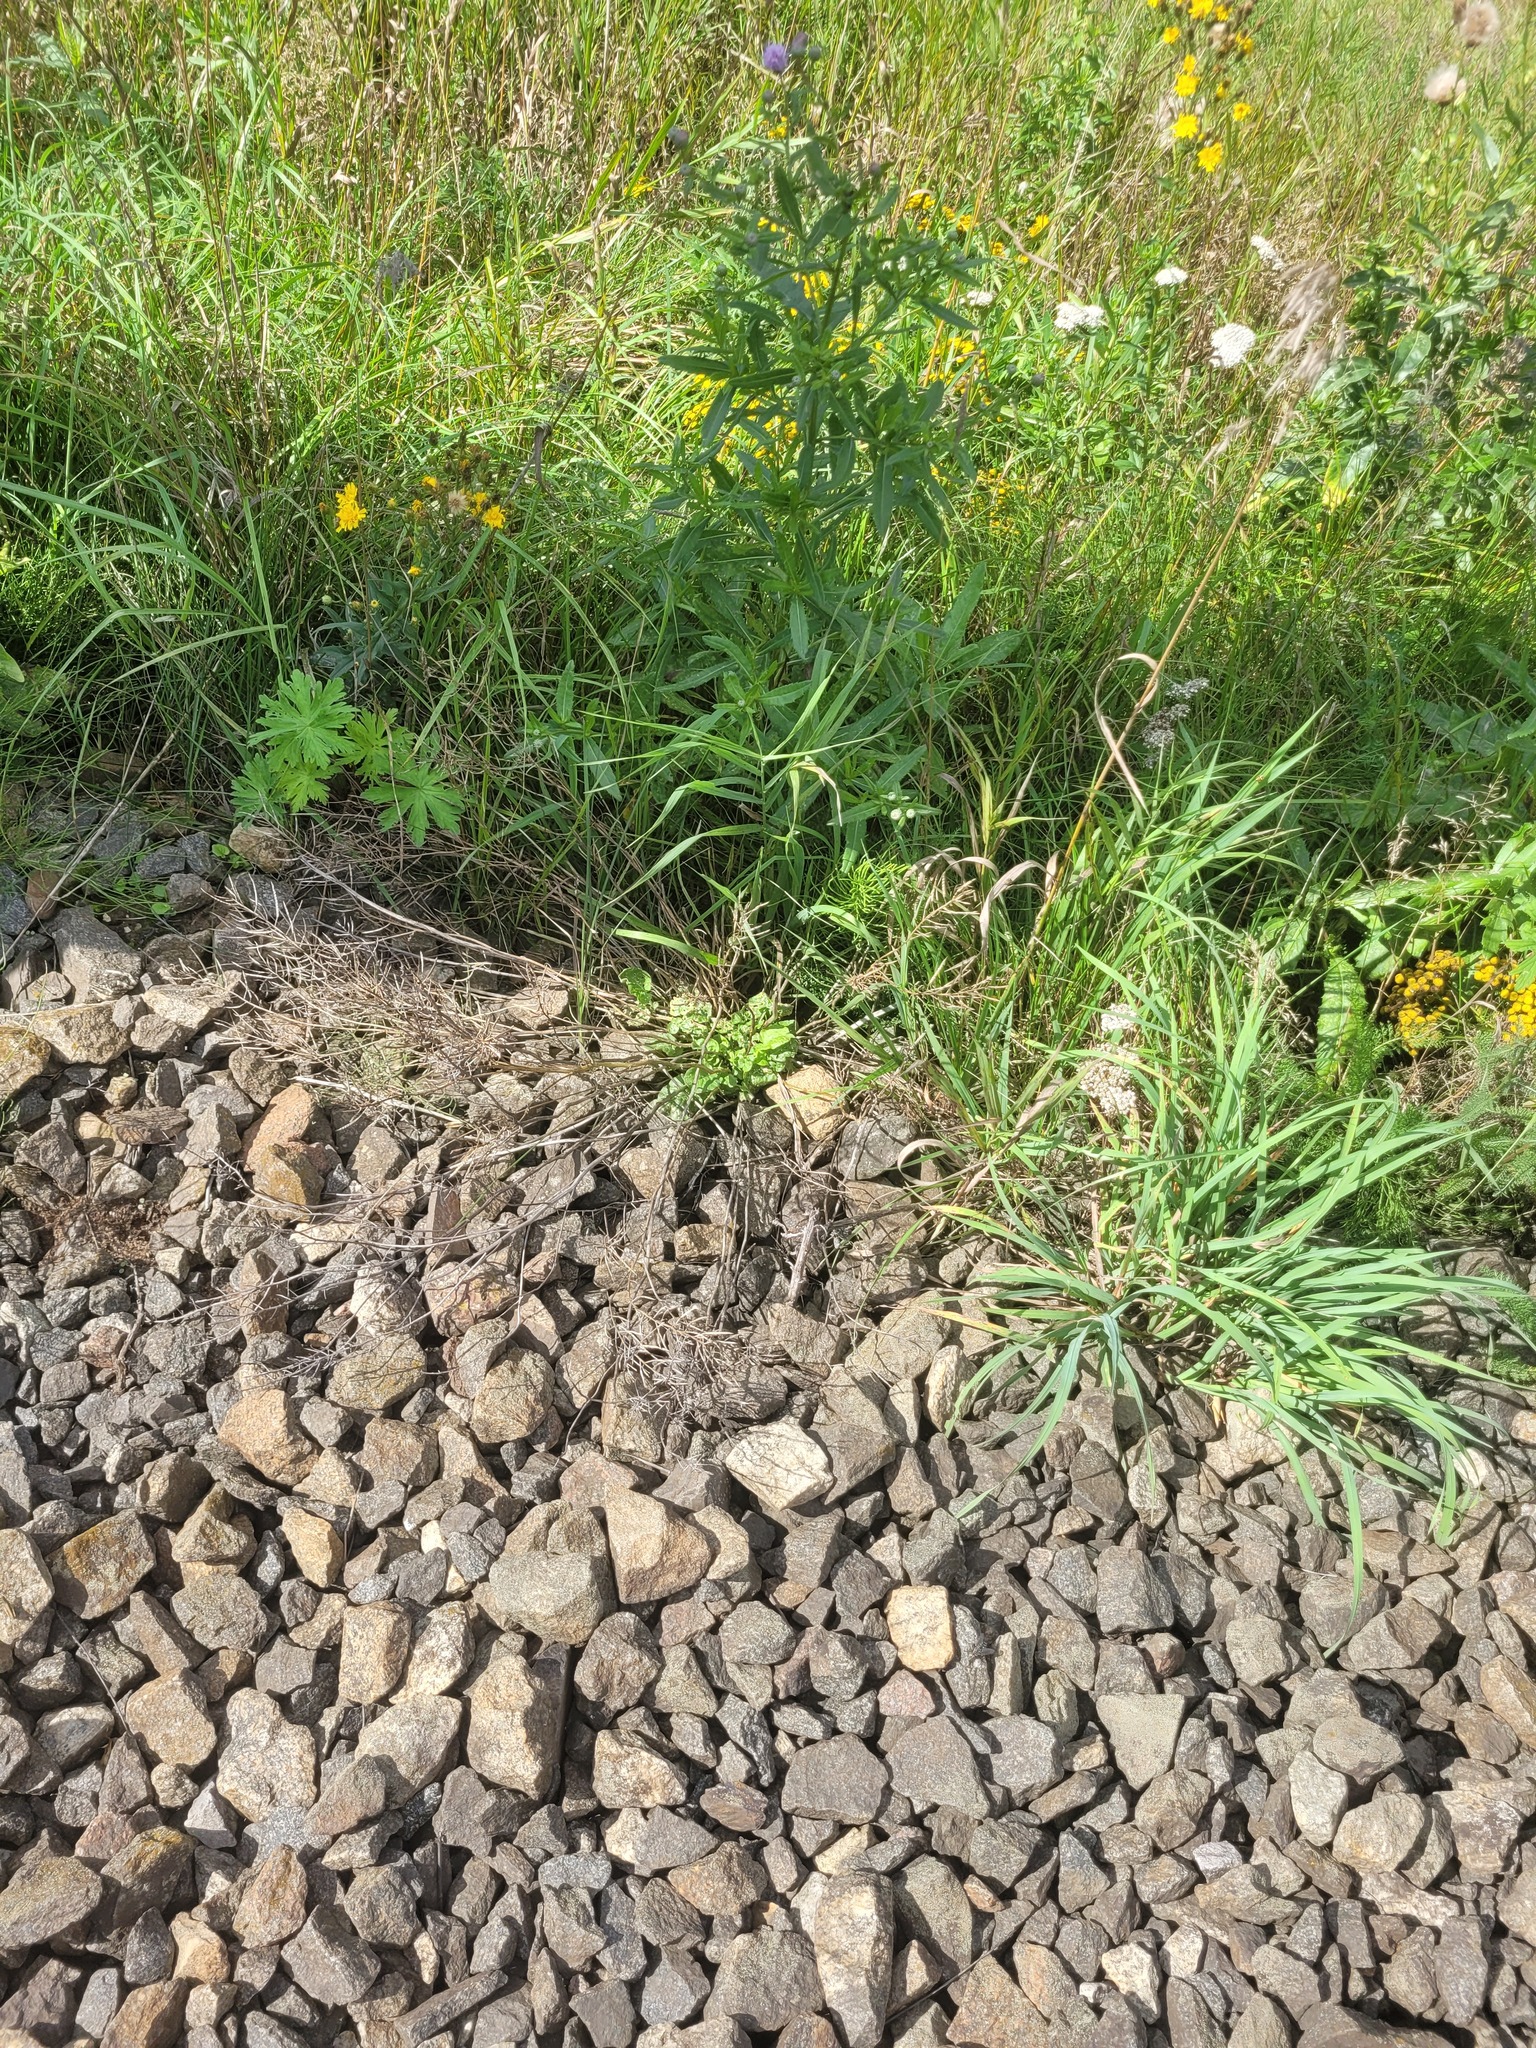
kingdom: Plantae
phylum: Tracheophyta
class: Magnoliopsida
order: Brassicales
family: Brassicaceae
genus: Barbarea
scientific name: Barbarea vulgaris
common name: Cressy-greens
